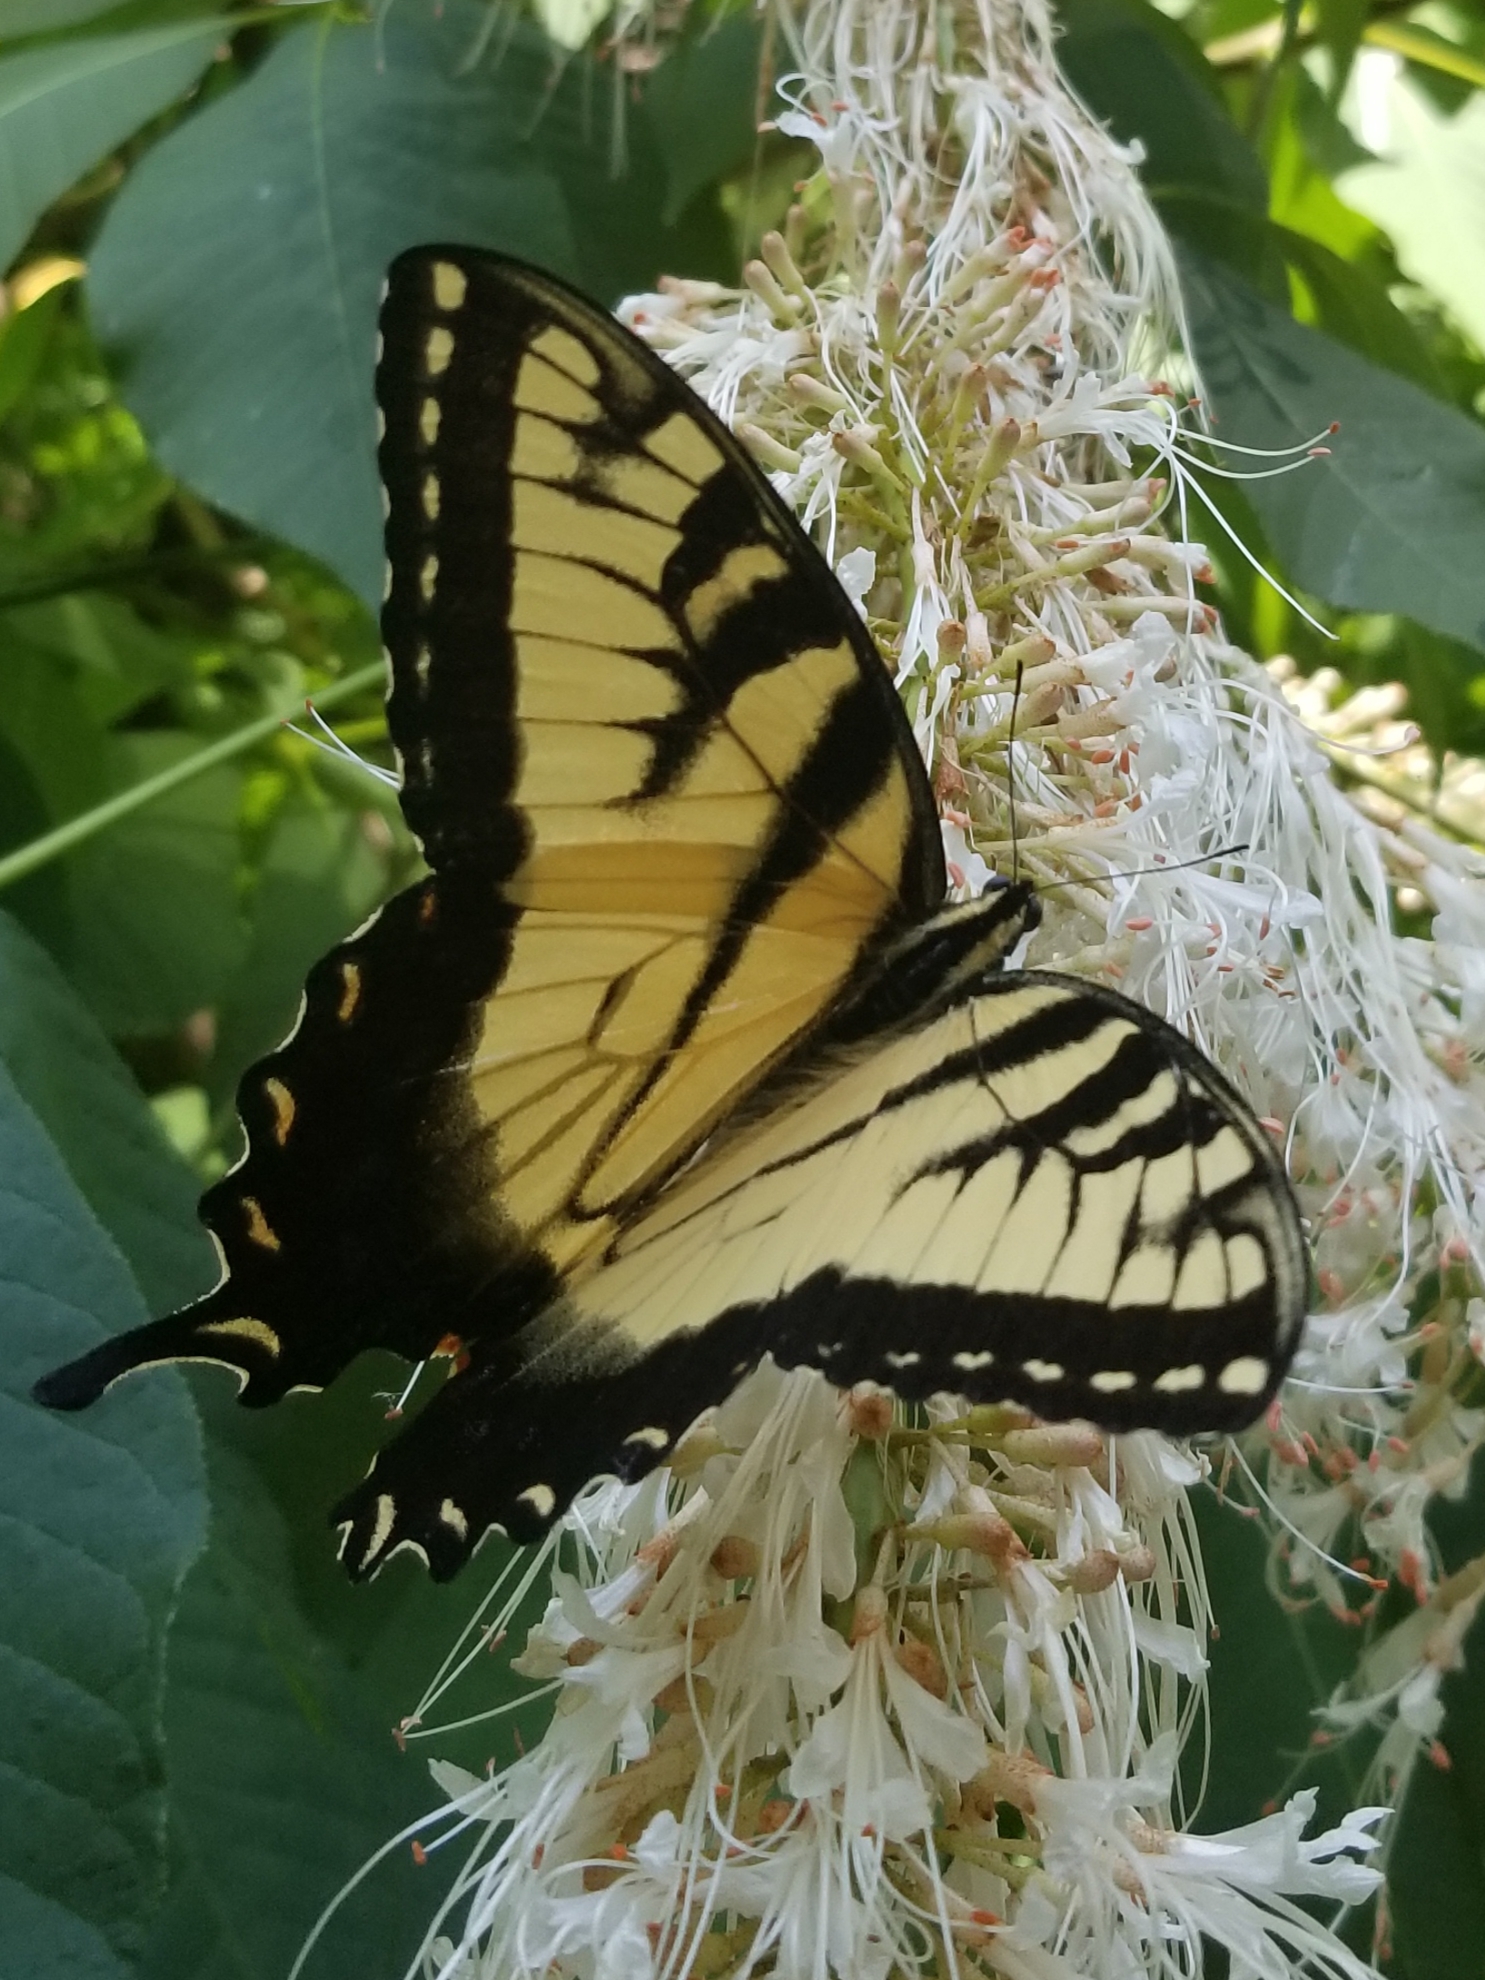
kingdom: Animalia
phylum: Arthropoda
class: Insecta
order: Lepidoptera
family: Papilionidae
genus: Papilio
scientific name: Papilio glaucus
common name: Tiger swallowtail
